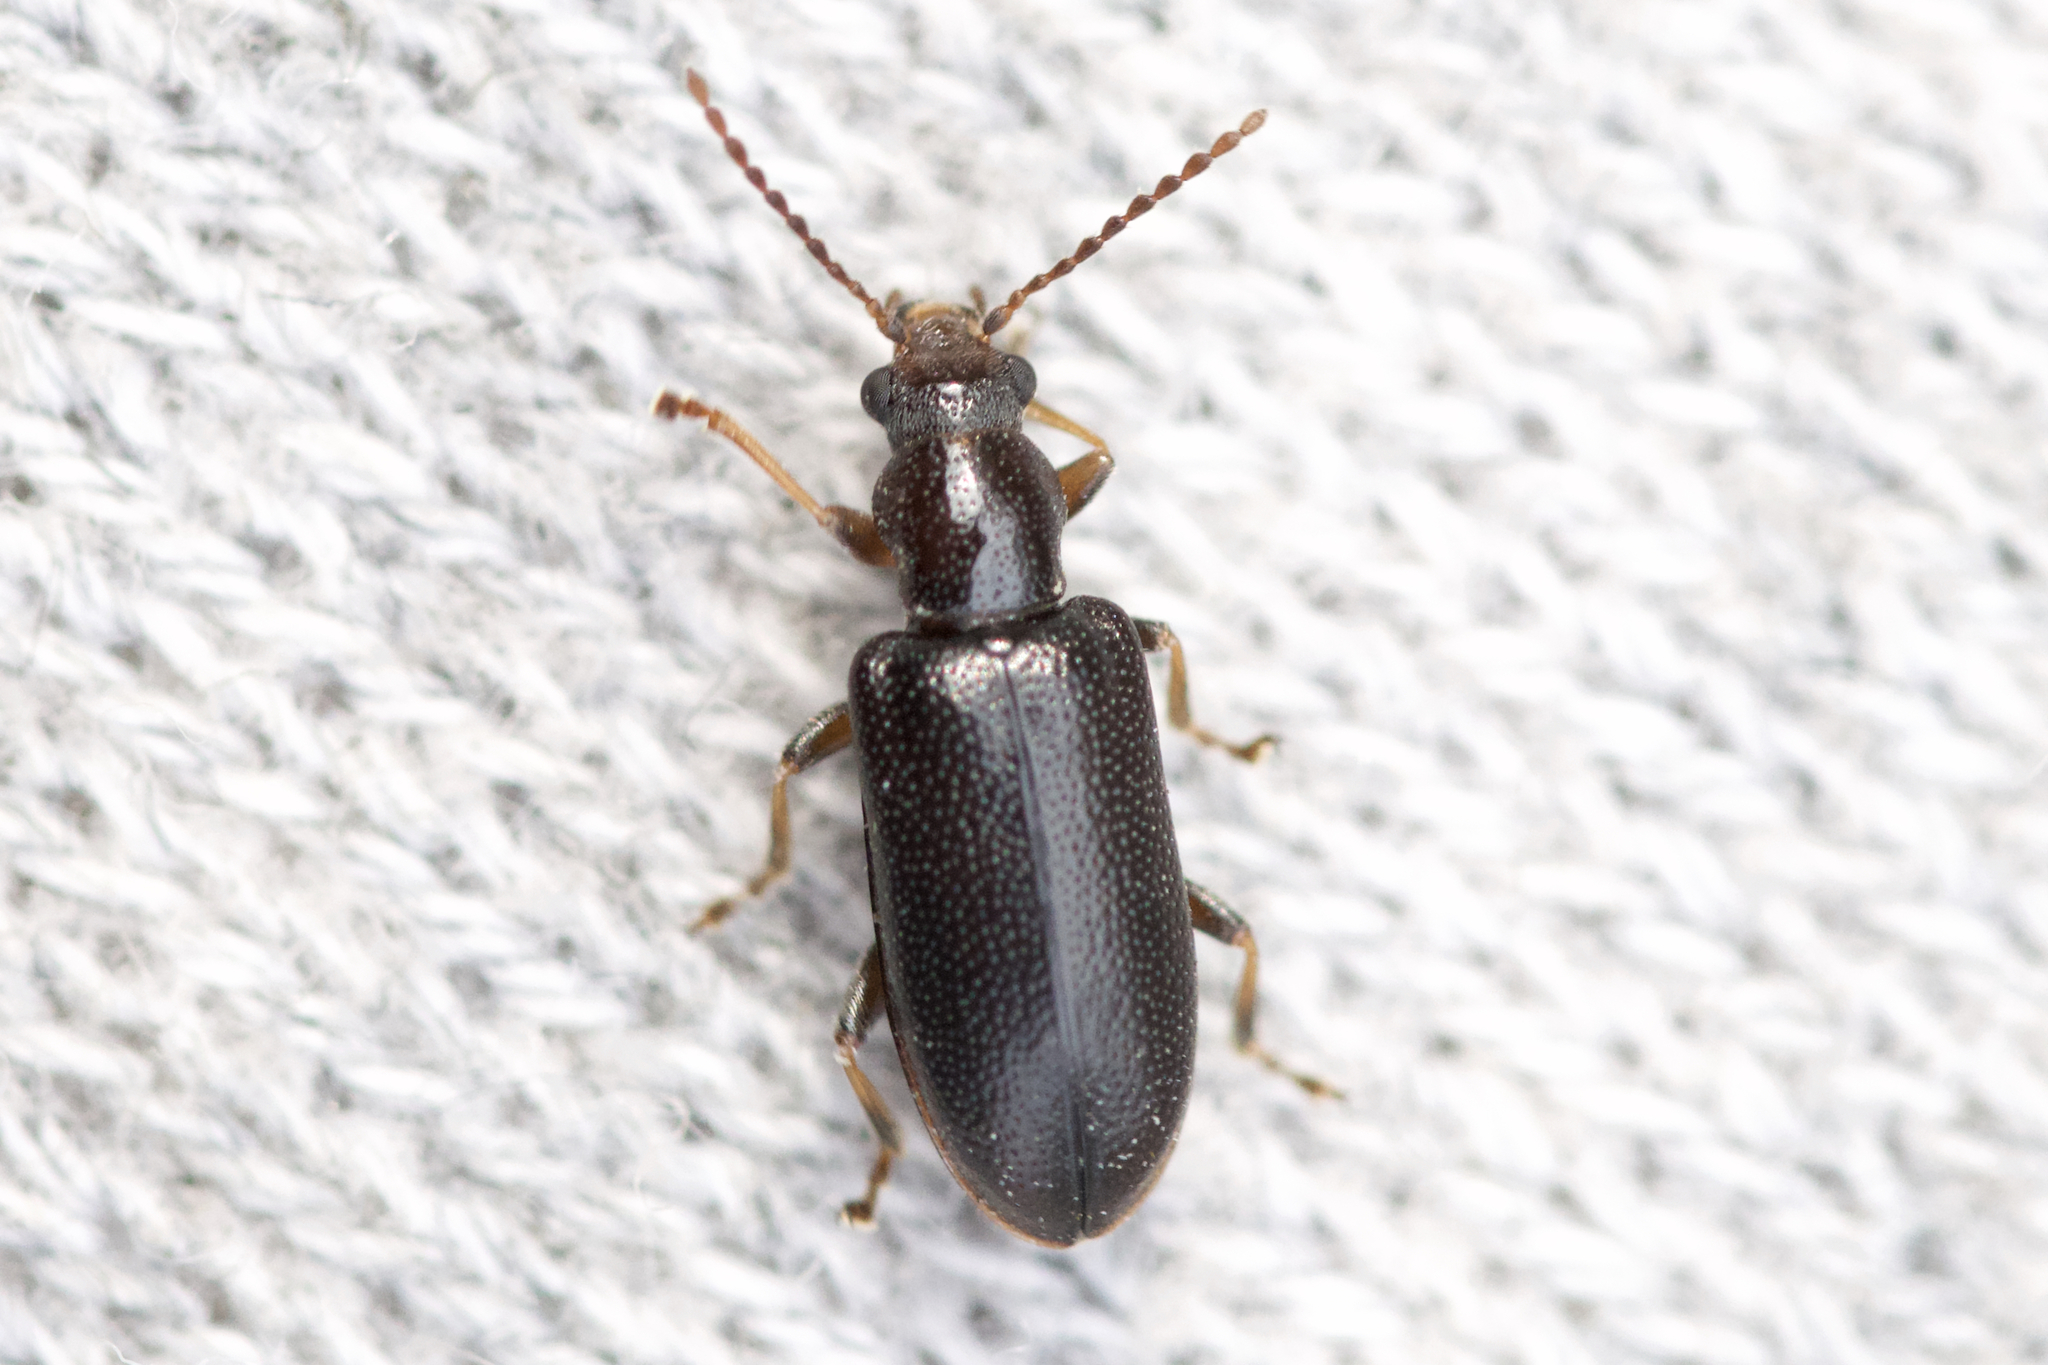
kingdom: Animalia
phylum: Arthropoda
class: Insecta
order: Coleoptera
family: Orsodacnidae
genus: Orsodacne
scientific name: Orsodacne atra
